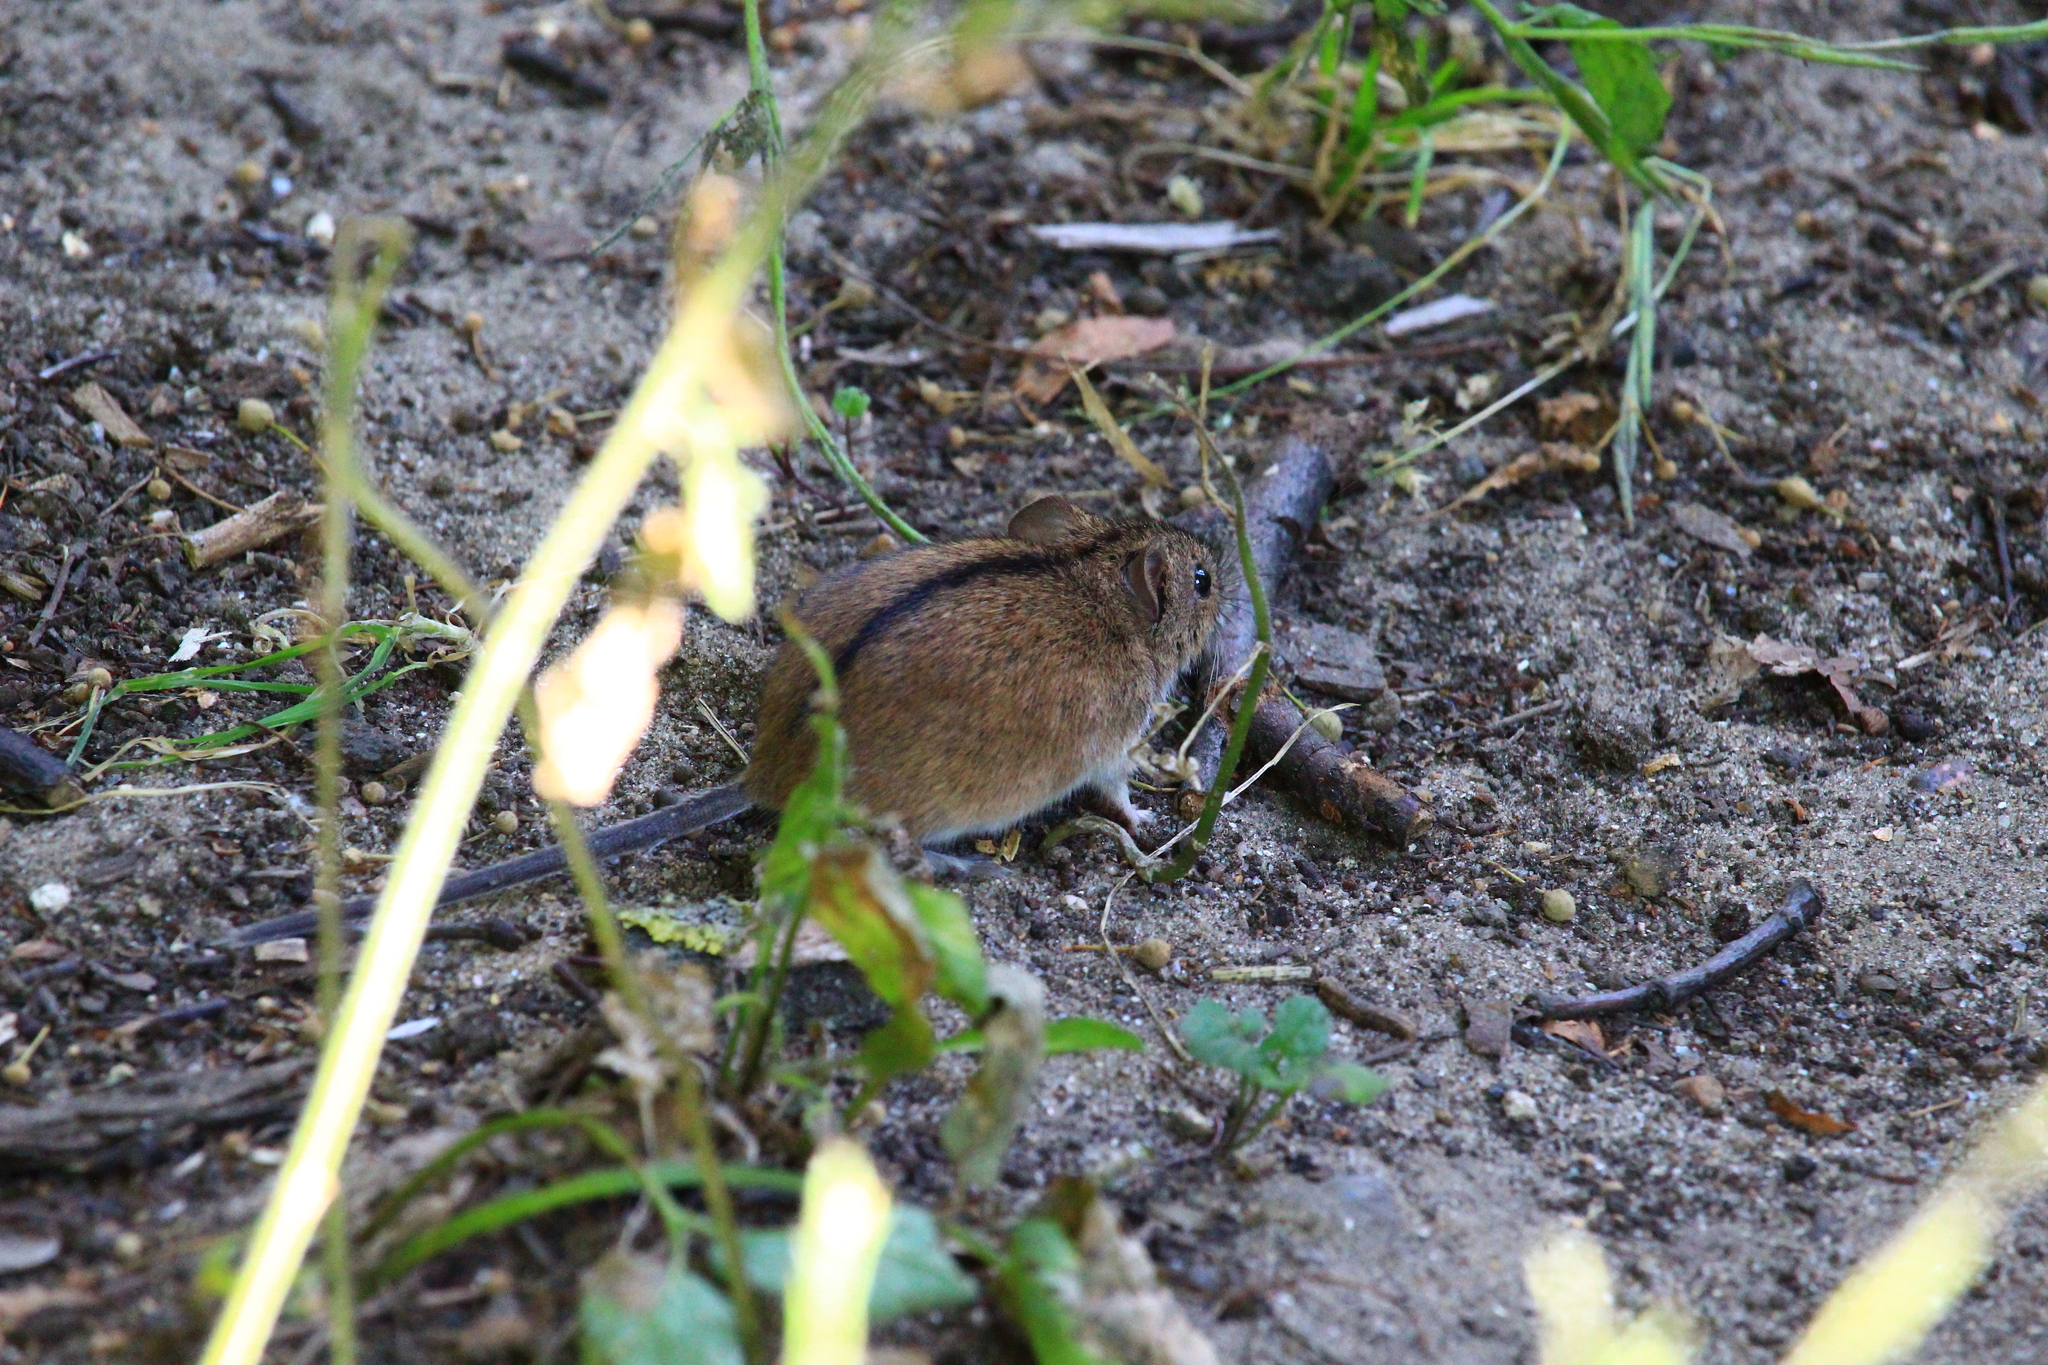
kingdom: Animalia
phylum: Chordata
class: Mammalia
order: Rodentia
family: Muridae
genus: Apodemus
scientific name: Apodemus agrarius
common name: Striped field mouse
